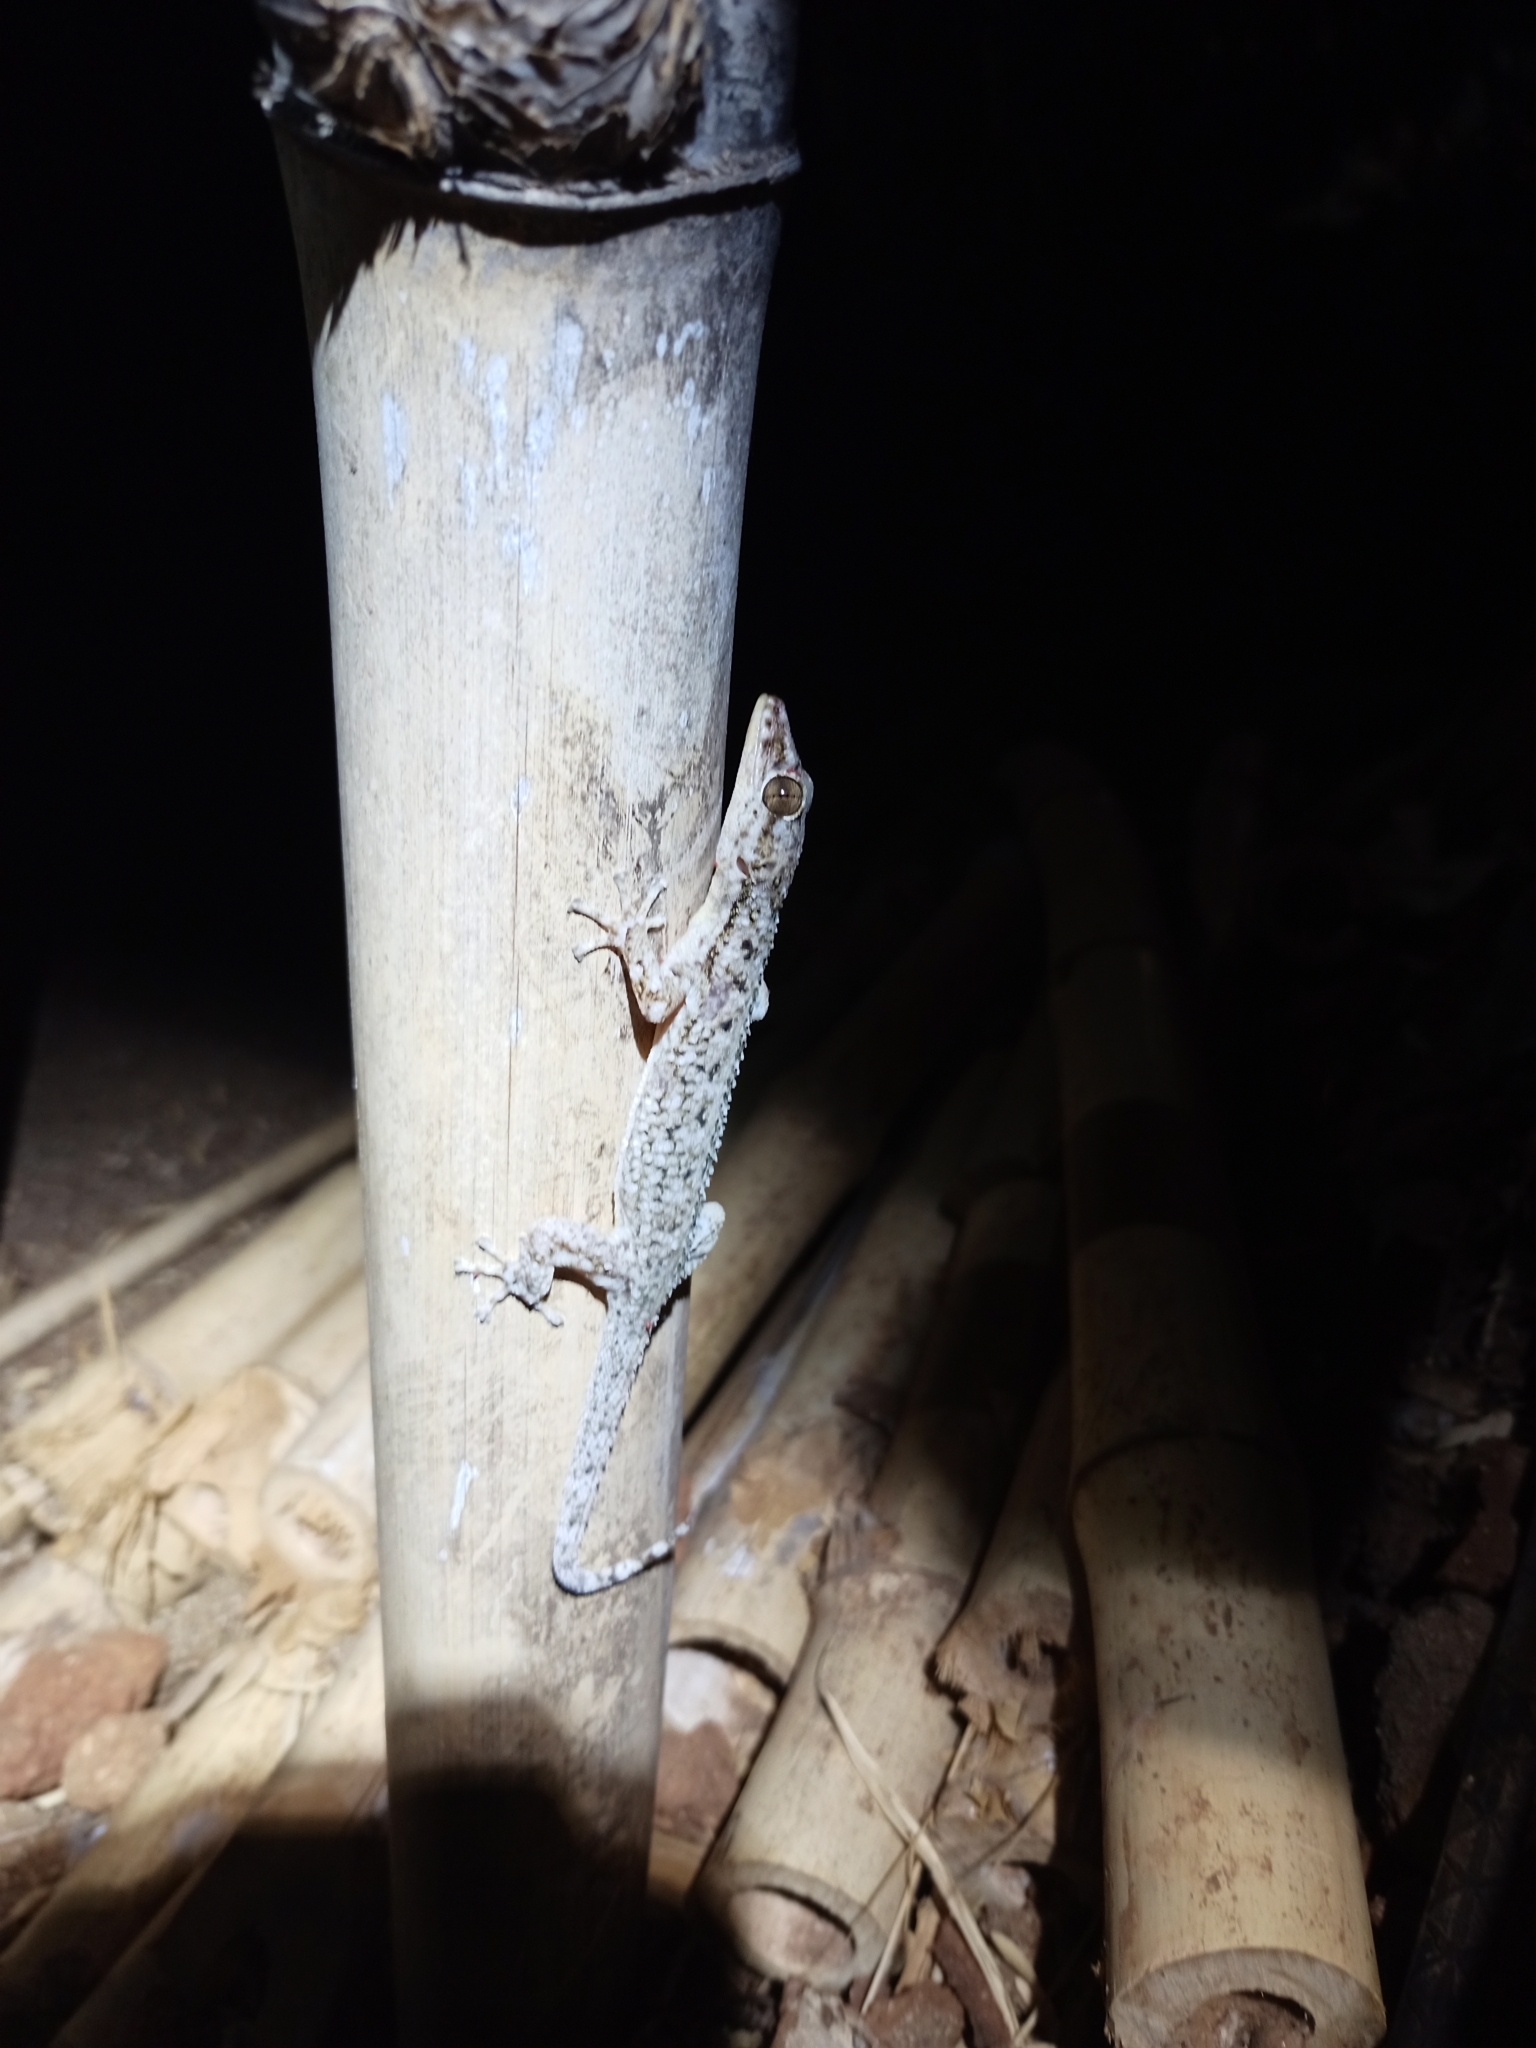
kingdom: Animalia
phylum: Chordata
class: Squamata
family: Phyllodactylidae
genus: Phyllodactylus
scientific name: Phyllodactylus tuberculosus
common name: Yellowbelly  gecko
